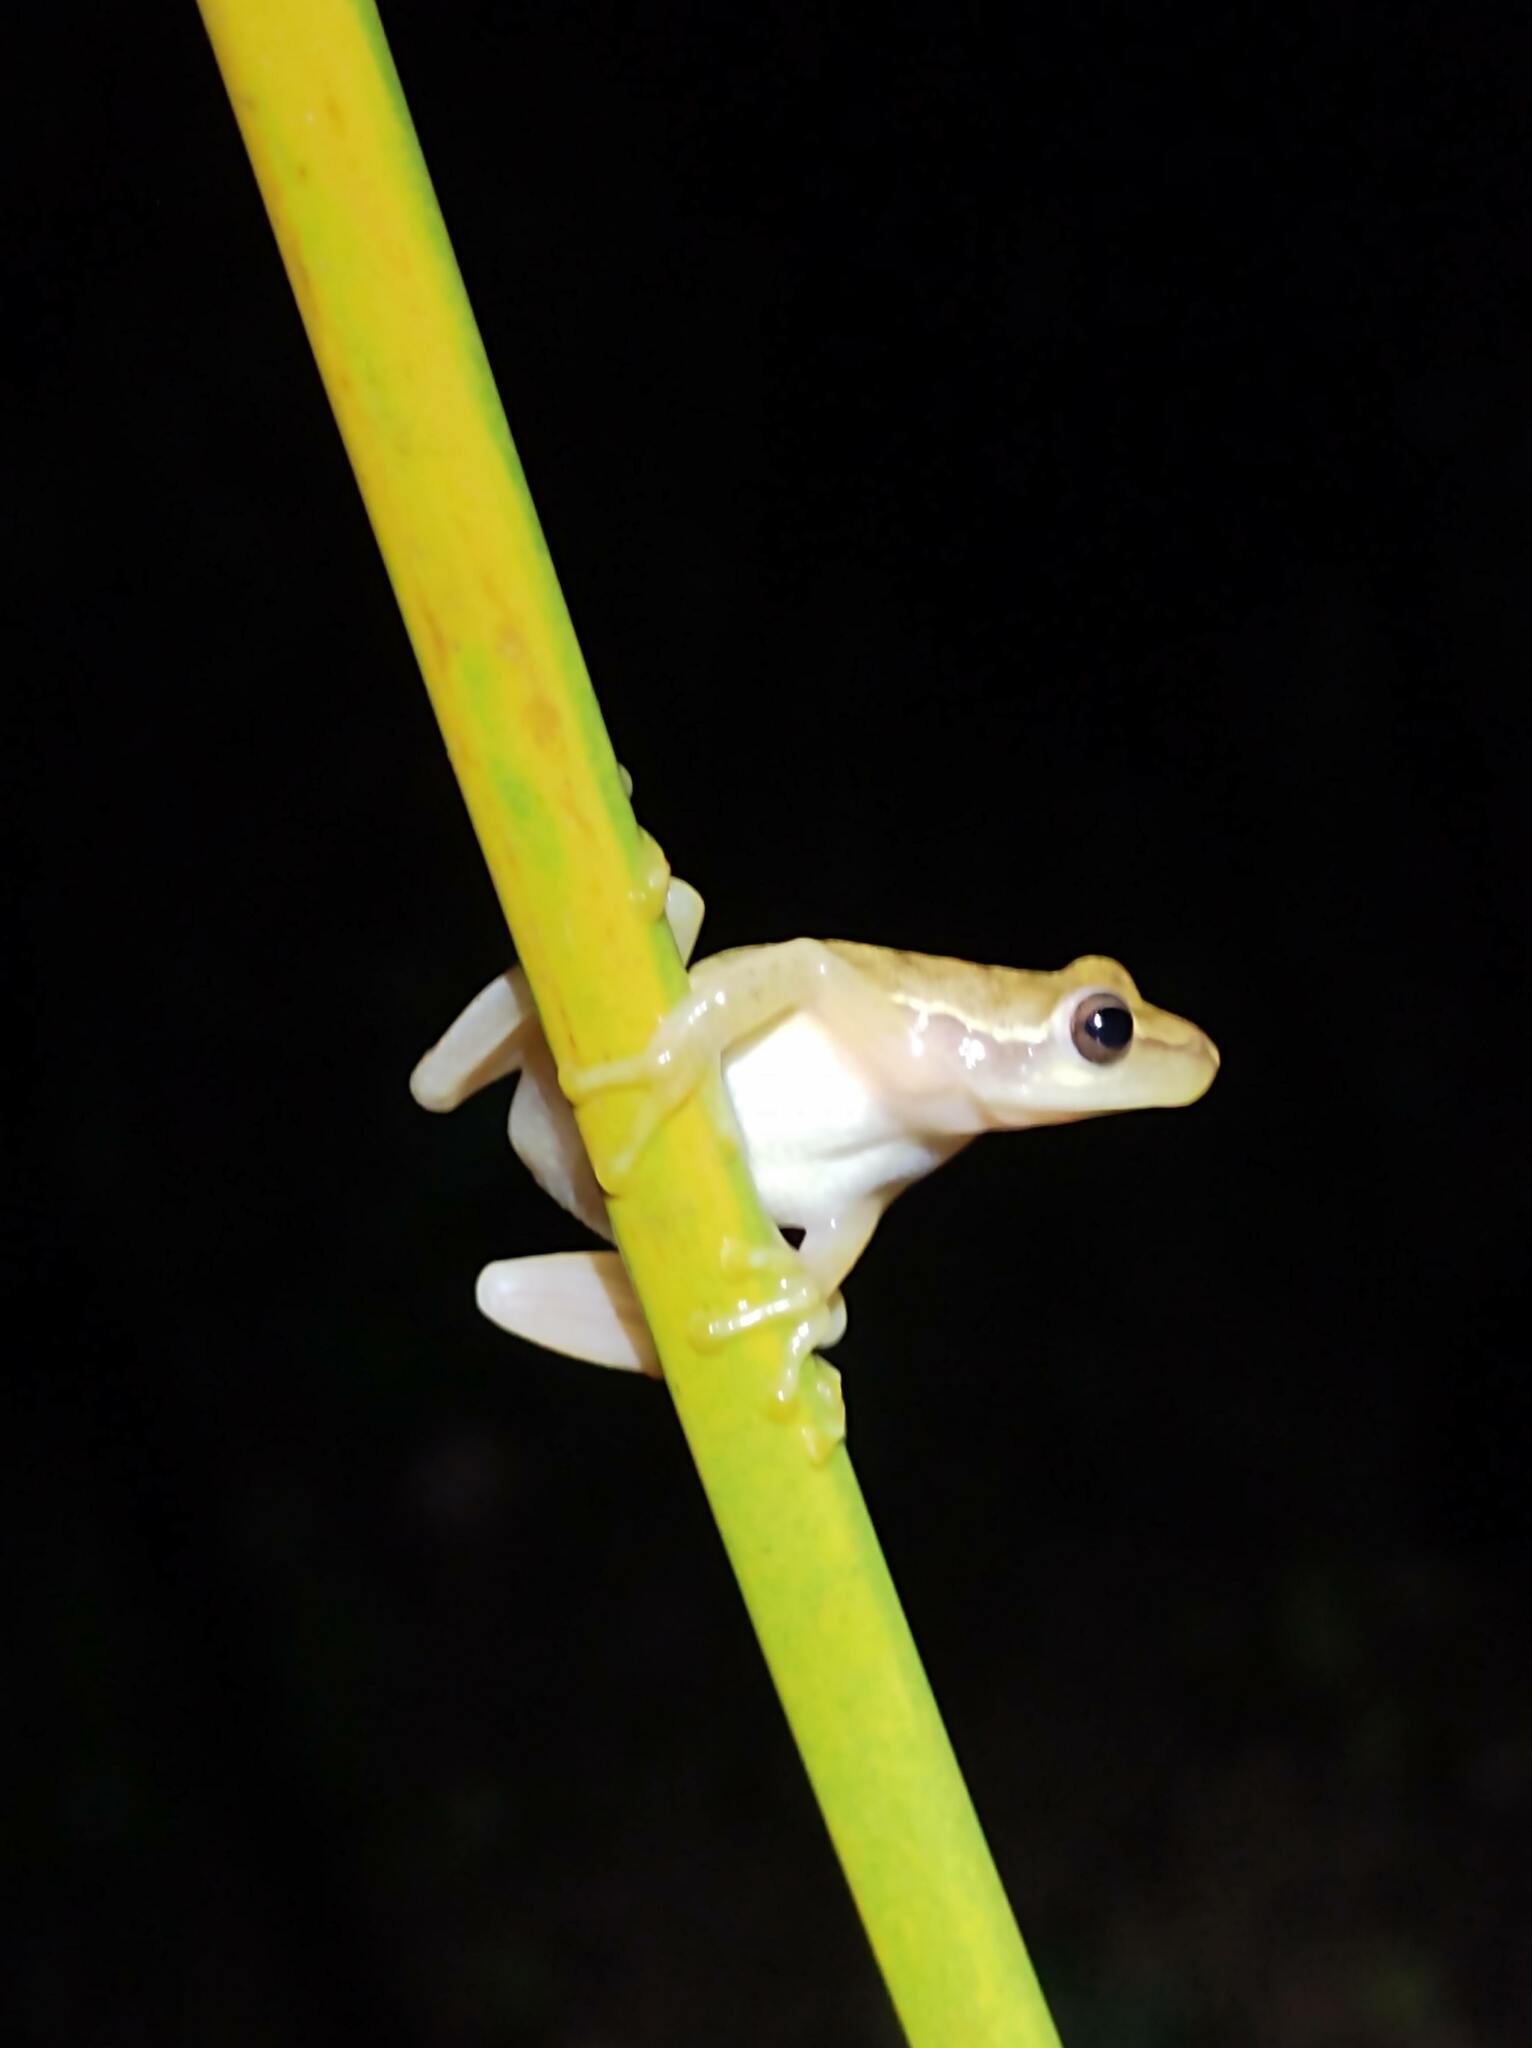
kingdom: Animalia
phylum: Chordata
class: Amphibia
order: Anura
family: Hylidae
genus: Tlalocohyla
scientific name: Tlalocohyla smithii
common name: Dwarf mexican treefrog
